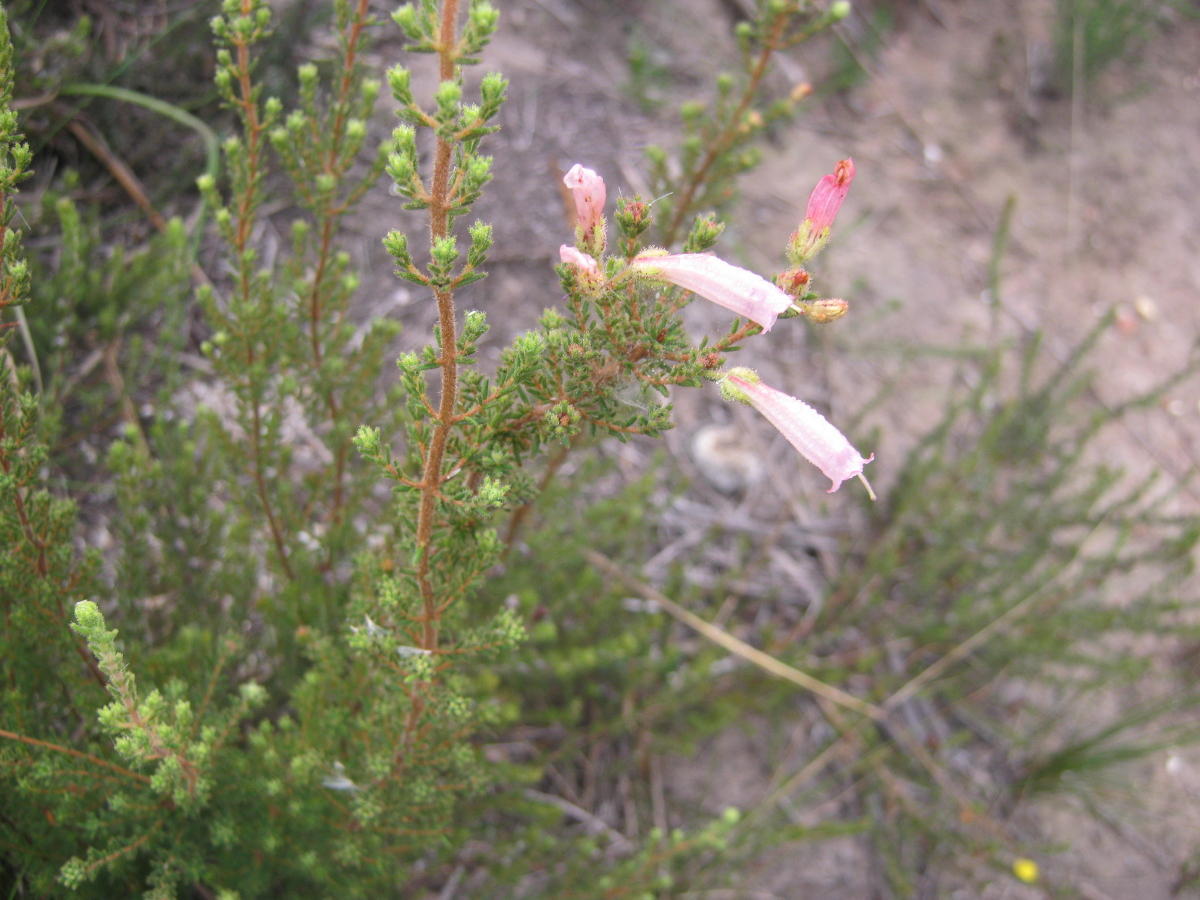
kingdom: Plantae
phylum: Tracheophyta
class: Magnoliopsida
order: Ericales
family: Ericaceae
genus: Erica
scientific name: Erica glandulosa
